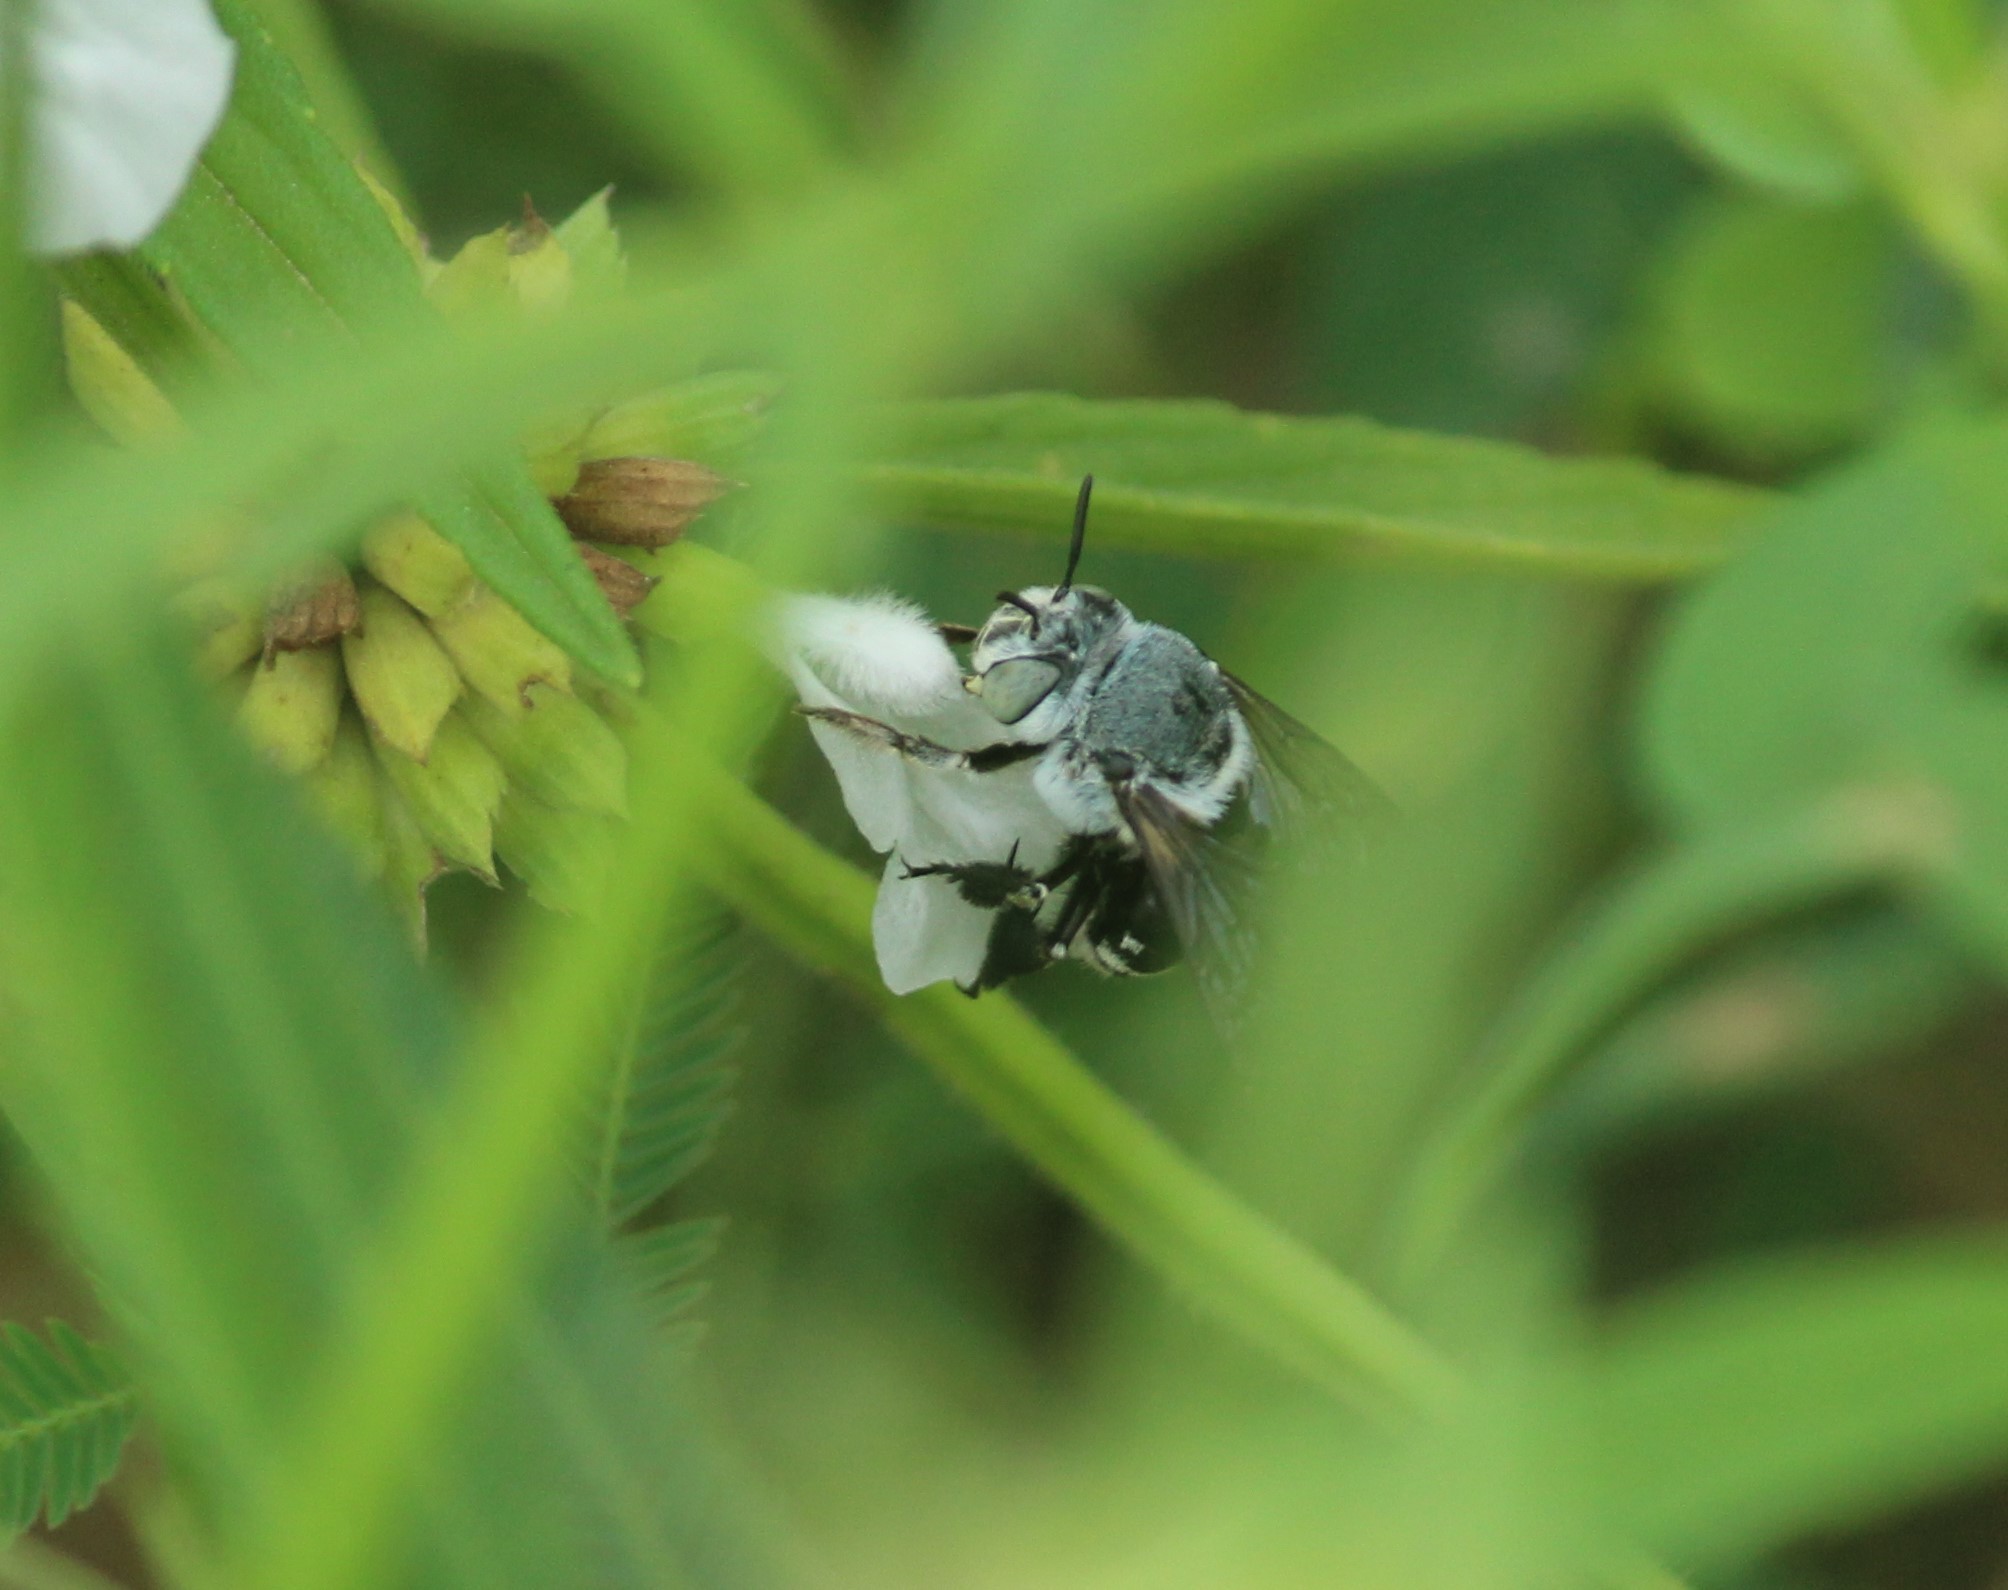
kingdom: Animalia
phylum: Arthropoda
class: Insecta
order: Hymenoptera
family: Apidae
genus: Amegilla
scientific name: Amegilla dizona
